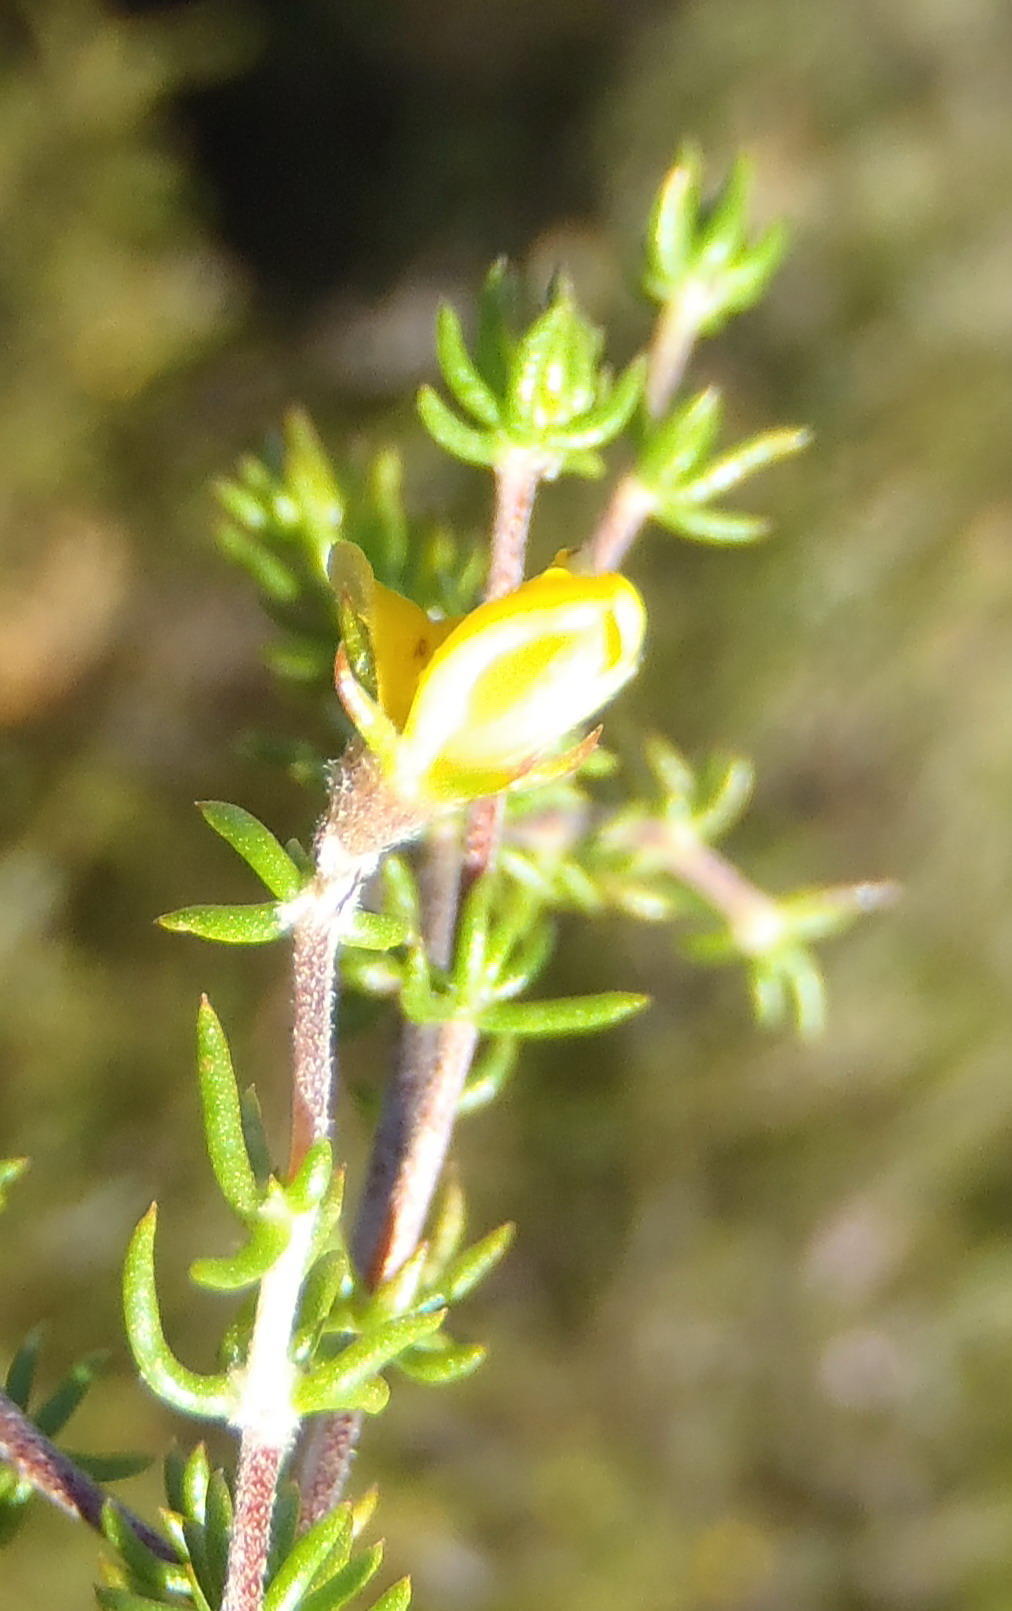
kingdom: Plantae
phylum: Tracheophyta
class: Magnoliopsida
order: Fabales
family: Fabaceae
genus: Aspalathus
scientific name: Aspalathus rubens
